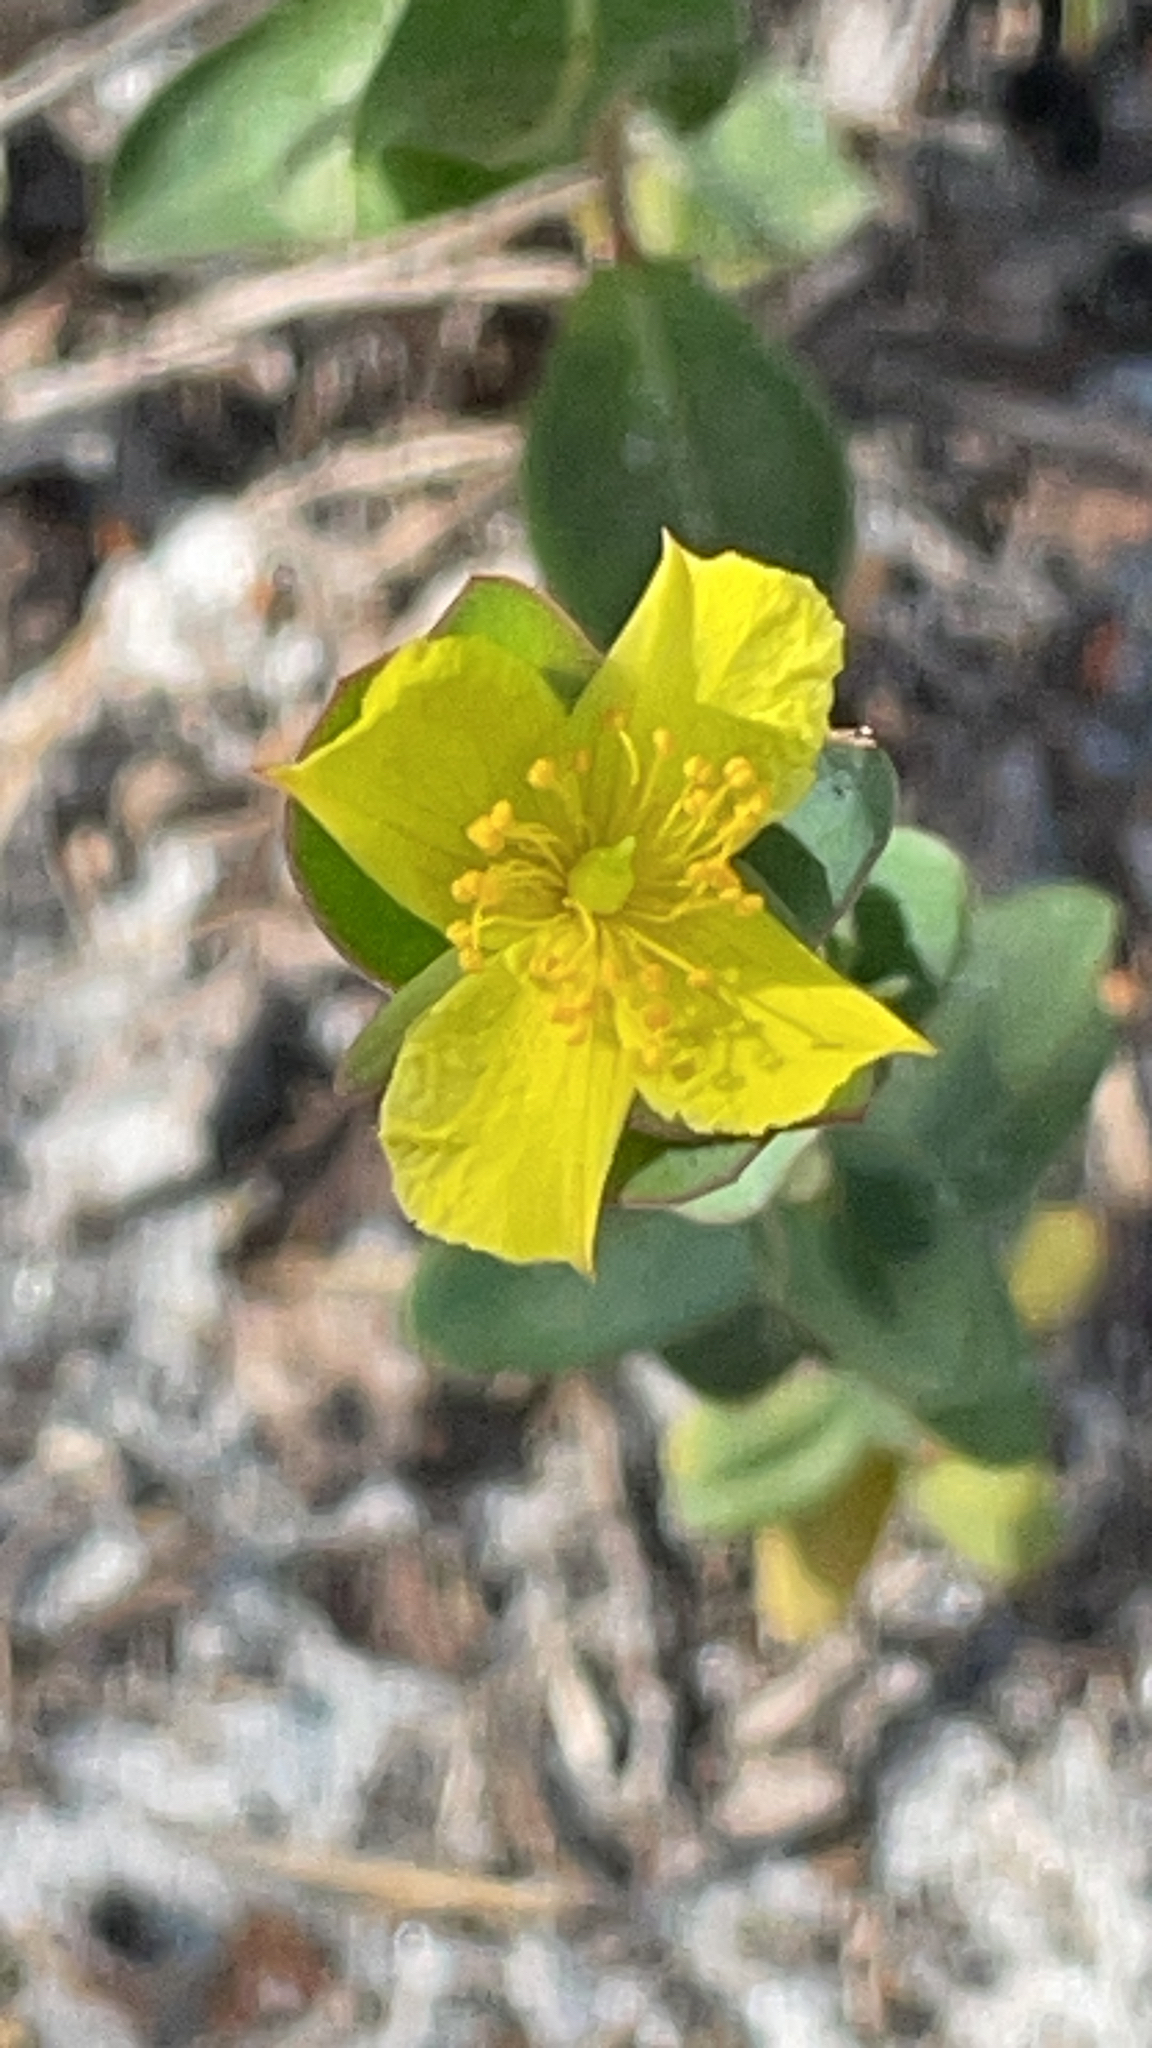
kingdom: Plantae
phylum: Tracheophyta
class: Magnoliopsida
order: Malpighiales
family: Hypericaceae
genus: Hypericum
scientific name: Hypericum tetrapetalum
